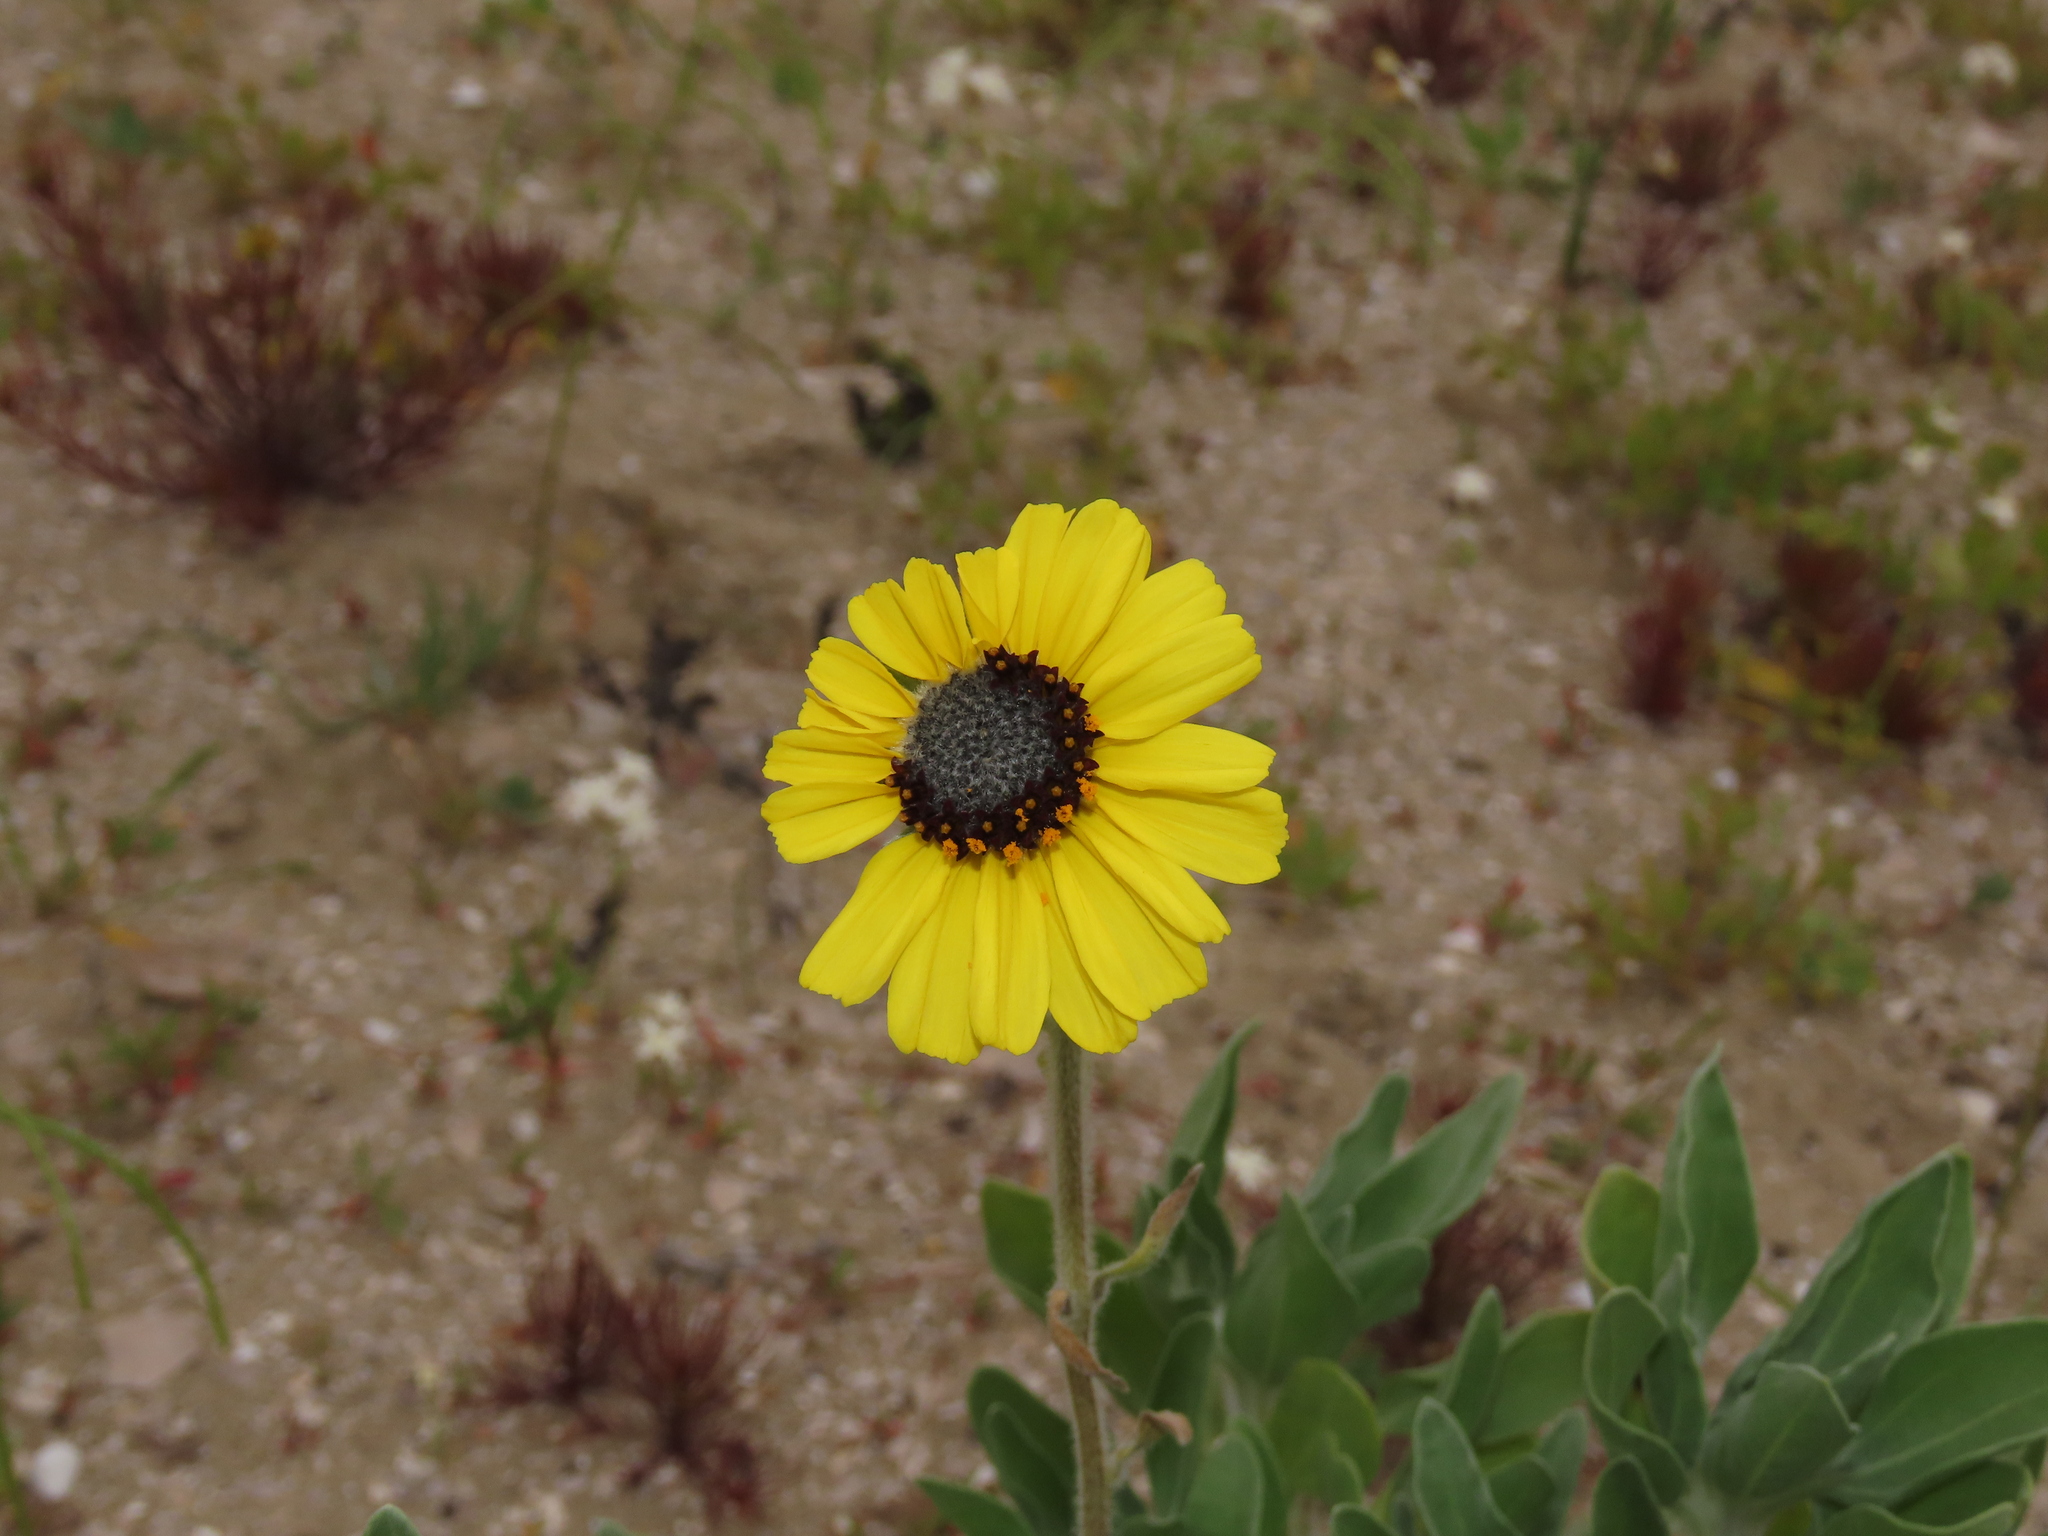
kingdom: Plantae
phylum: Tracheophyta
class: Magnoliopsida
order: Asterales
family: Asteraceae
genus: Encelia
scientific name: Encelia canescens
